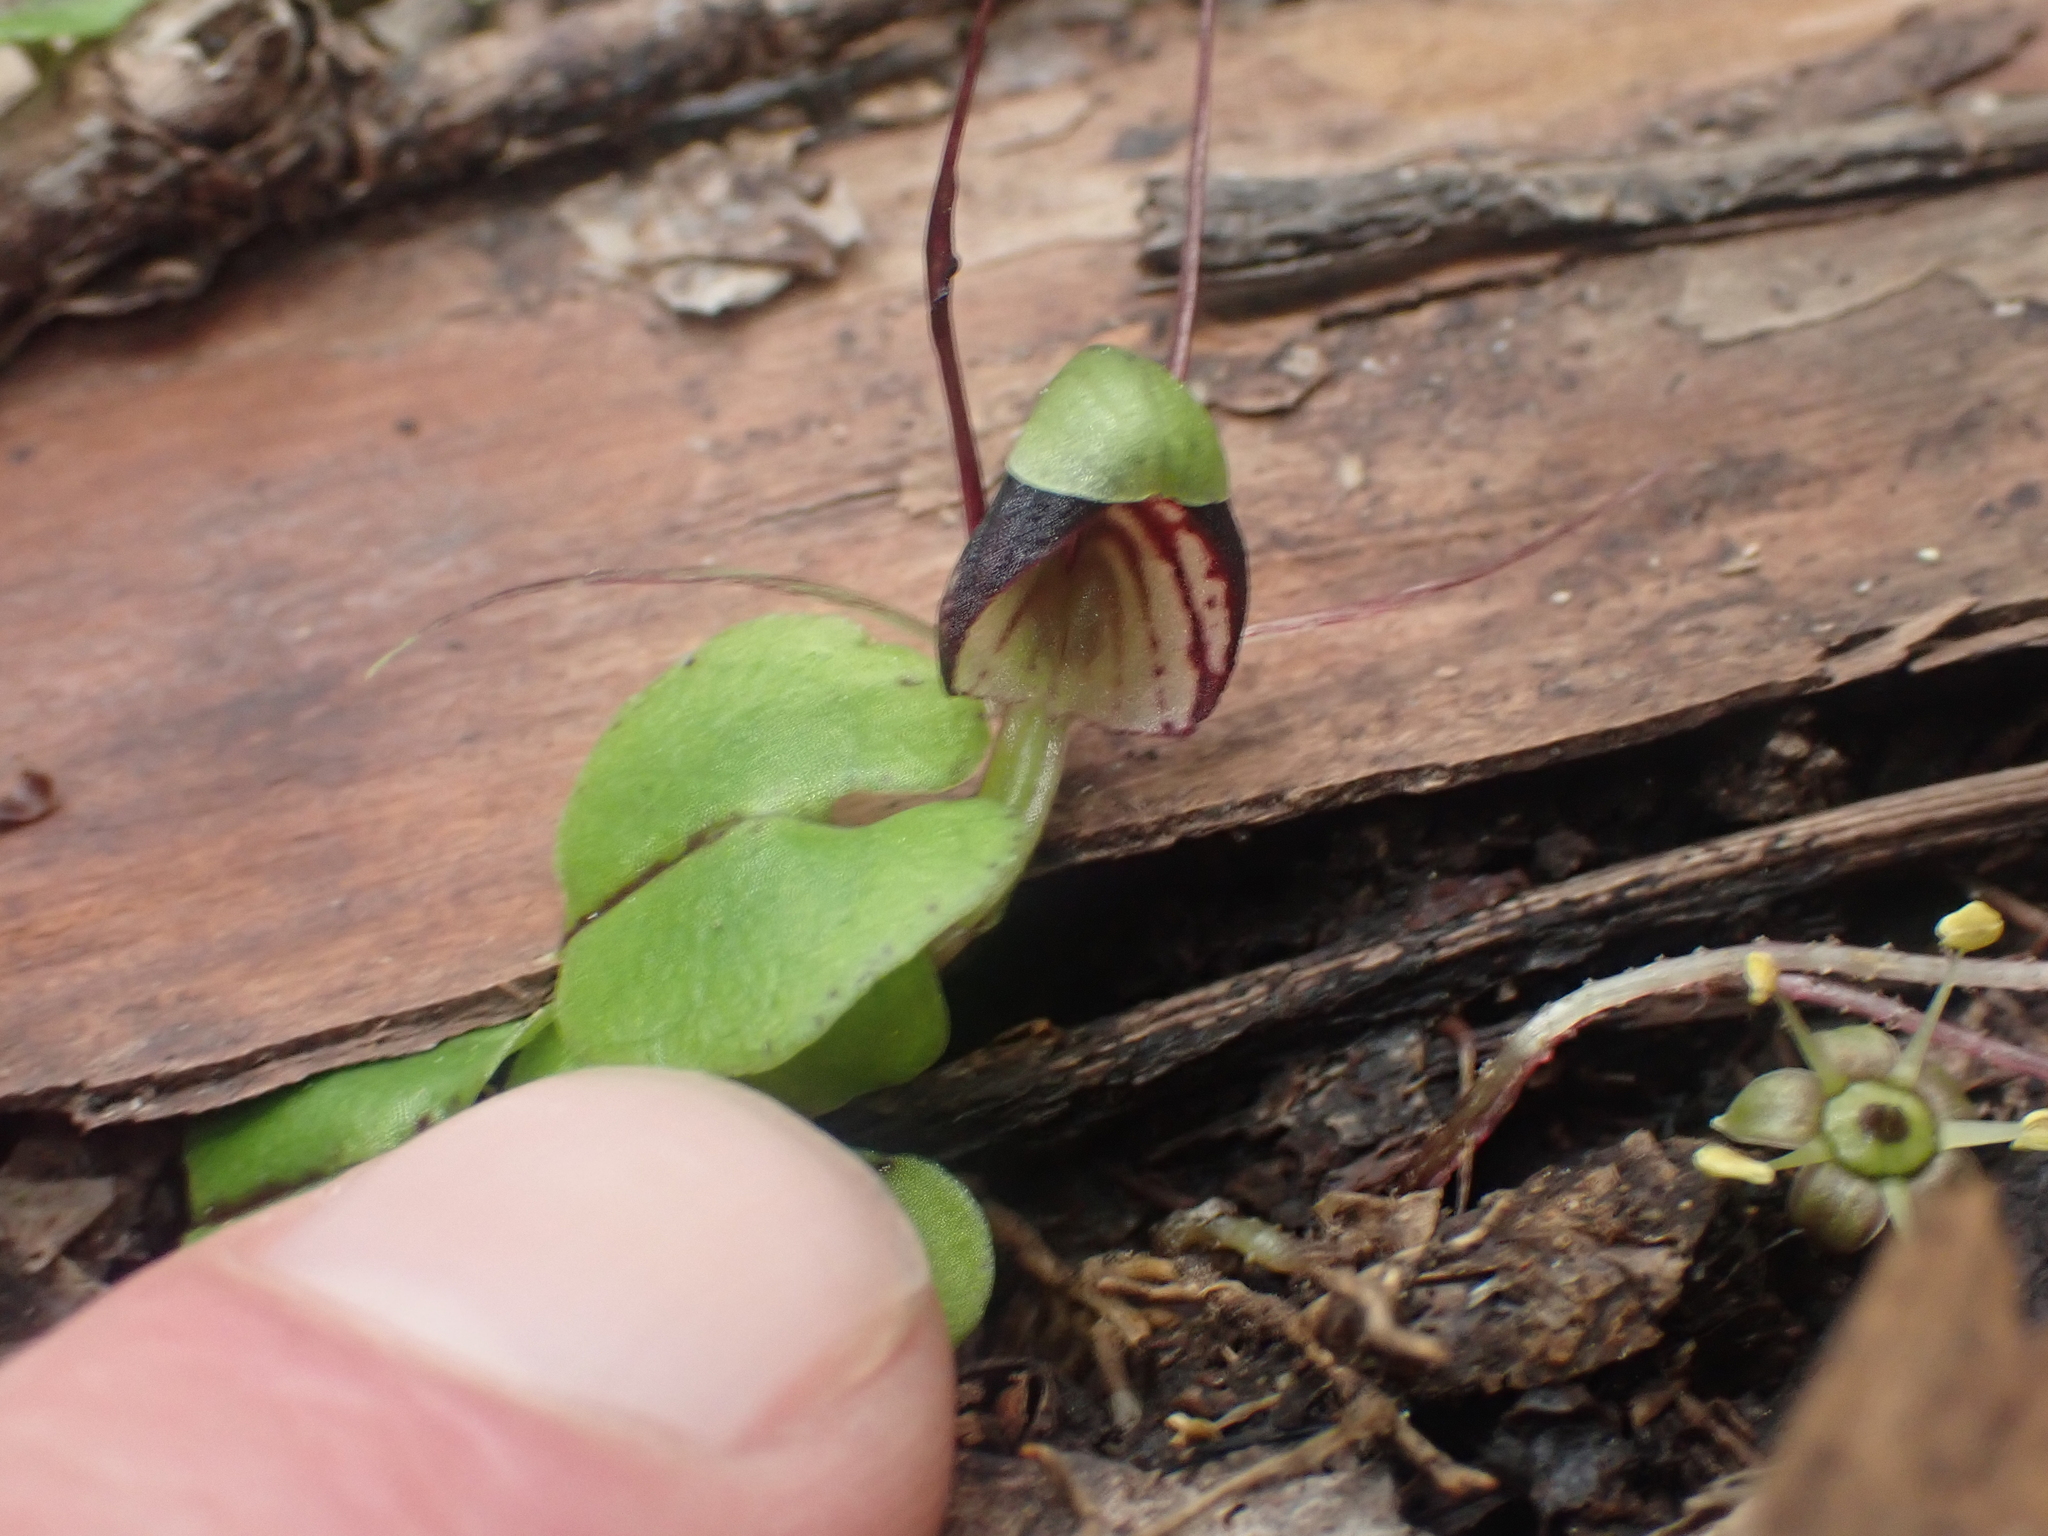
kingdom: Plantae
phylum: Tracheophyta
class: Liliopsida
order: Asparagales
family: Orchidaceae
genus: Corybas
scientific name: Corybas vitreus
